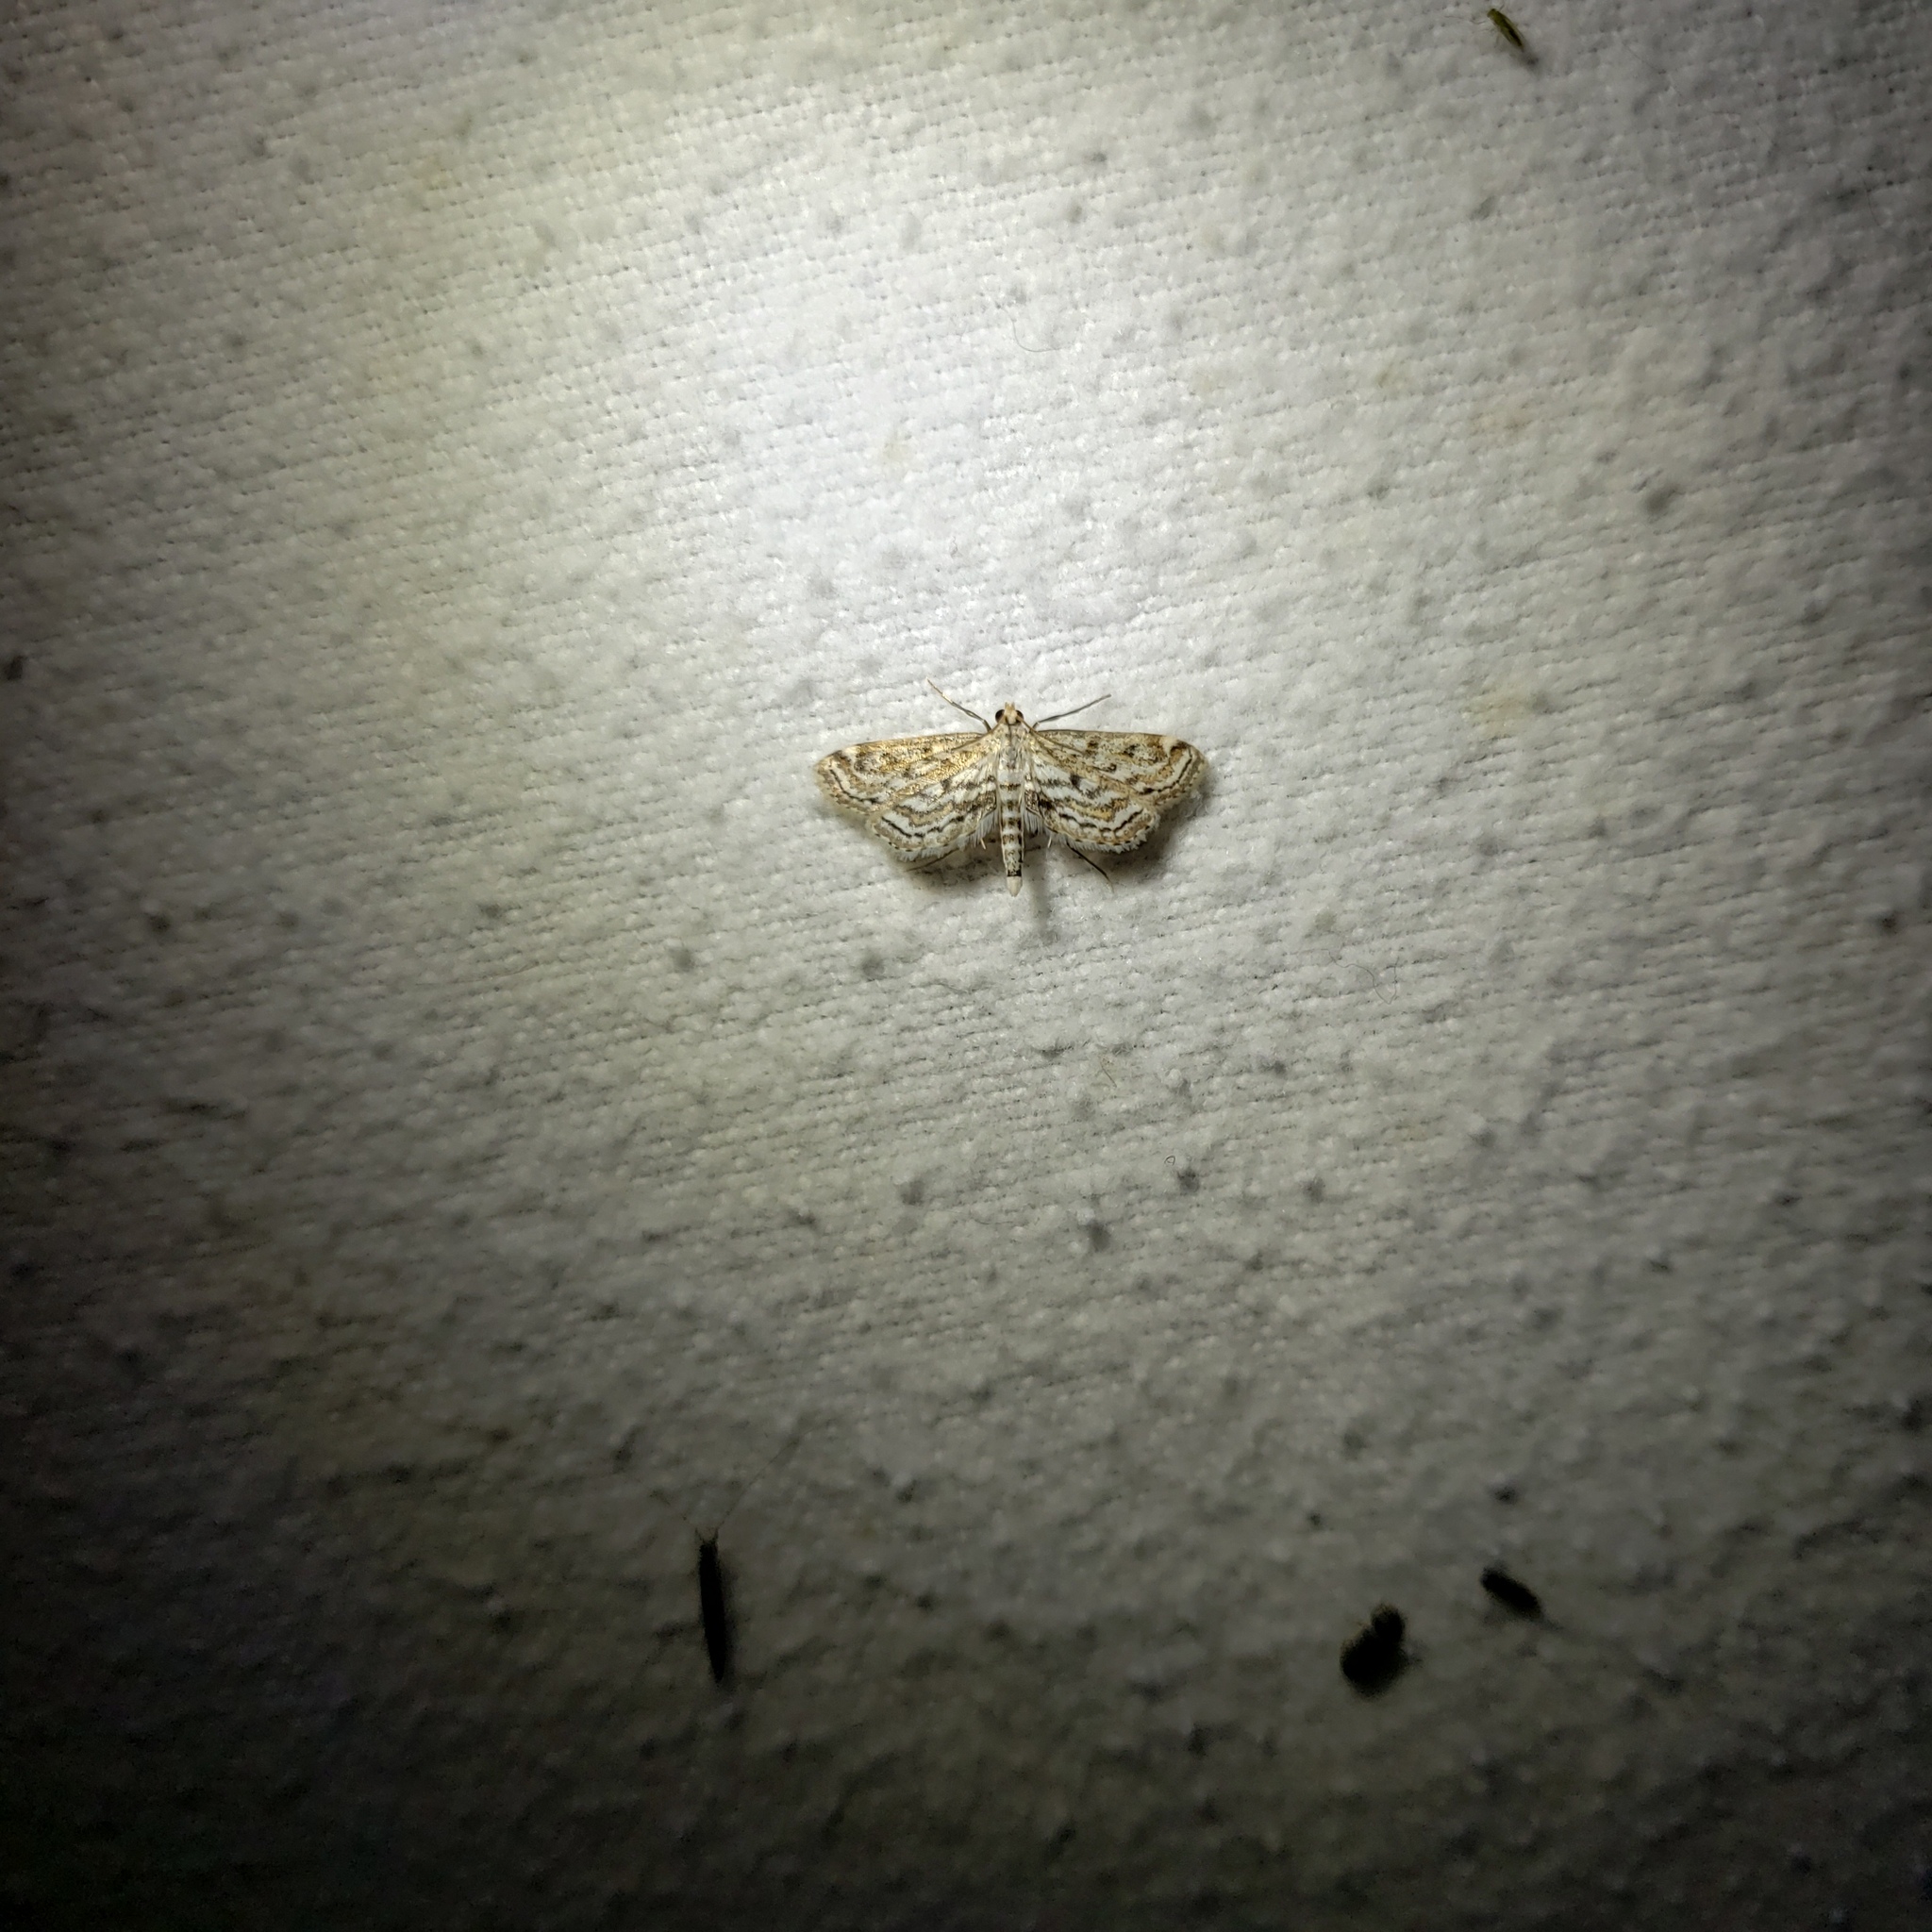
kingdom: Animalia
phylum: Arthropoda
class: Insecta
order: Lepidoptera
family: Crambidae
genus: Parapoynx
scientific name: Parapoynx allionealis
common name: Bladderwort casemaker
